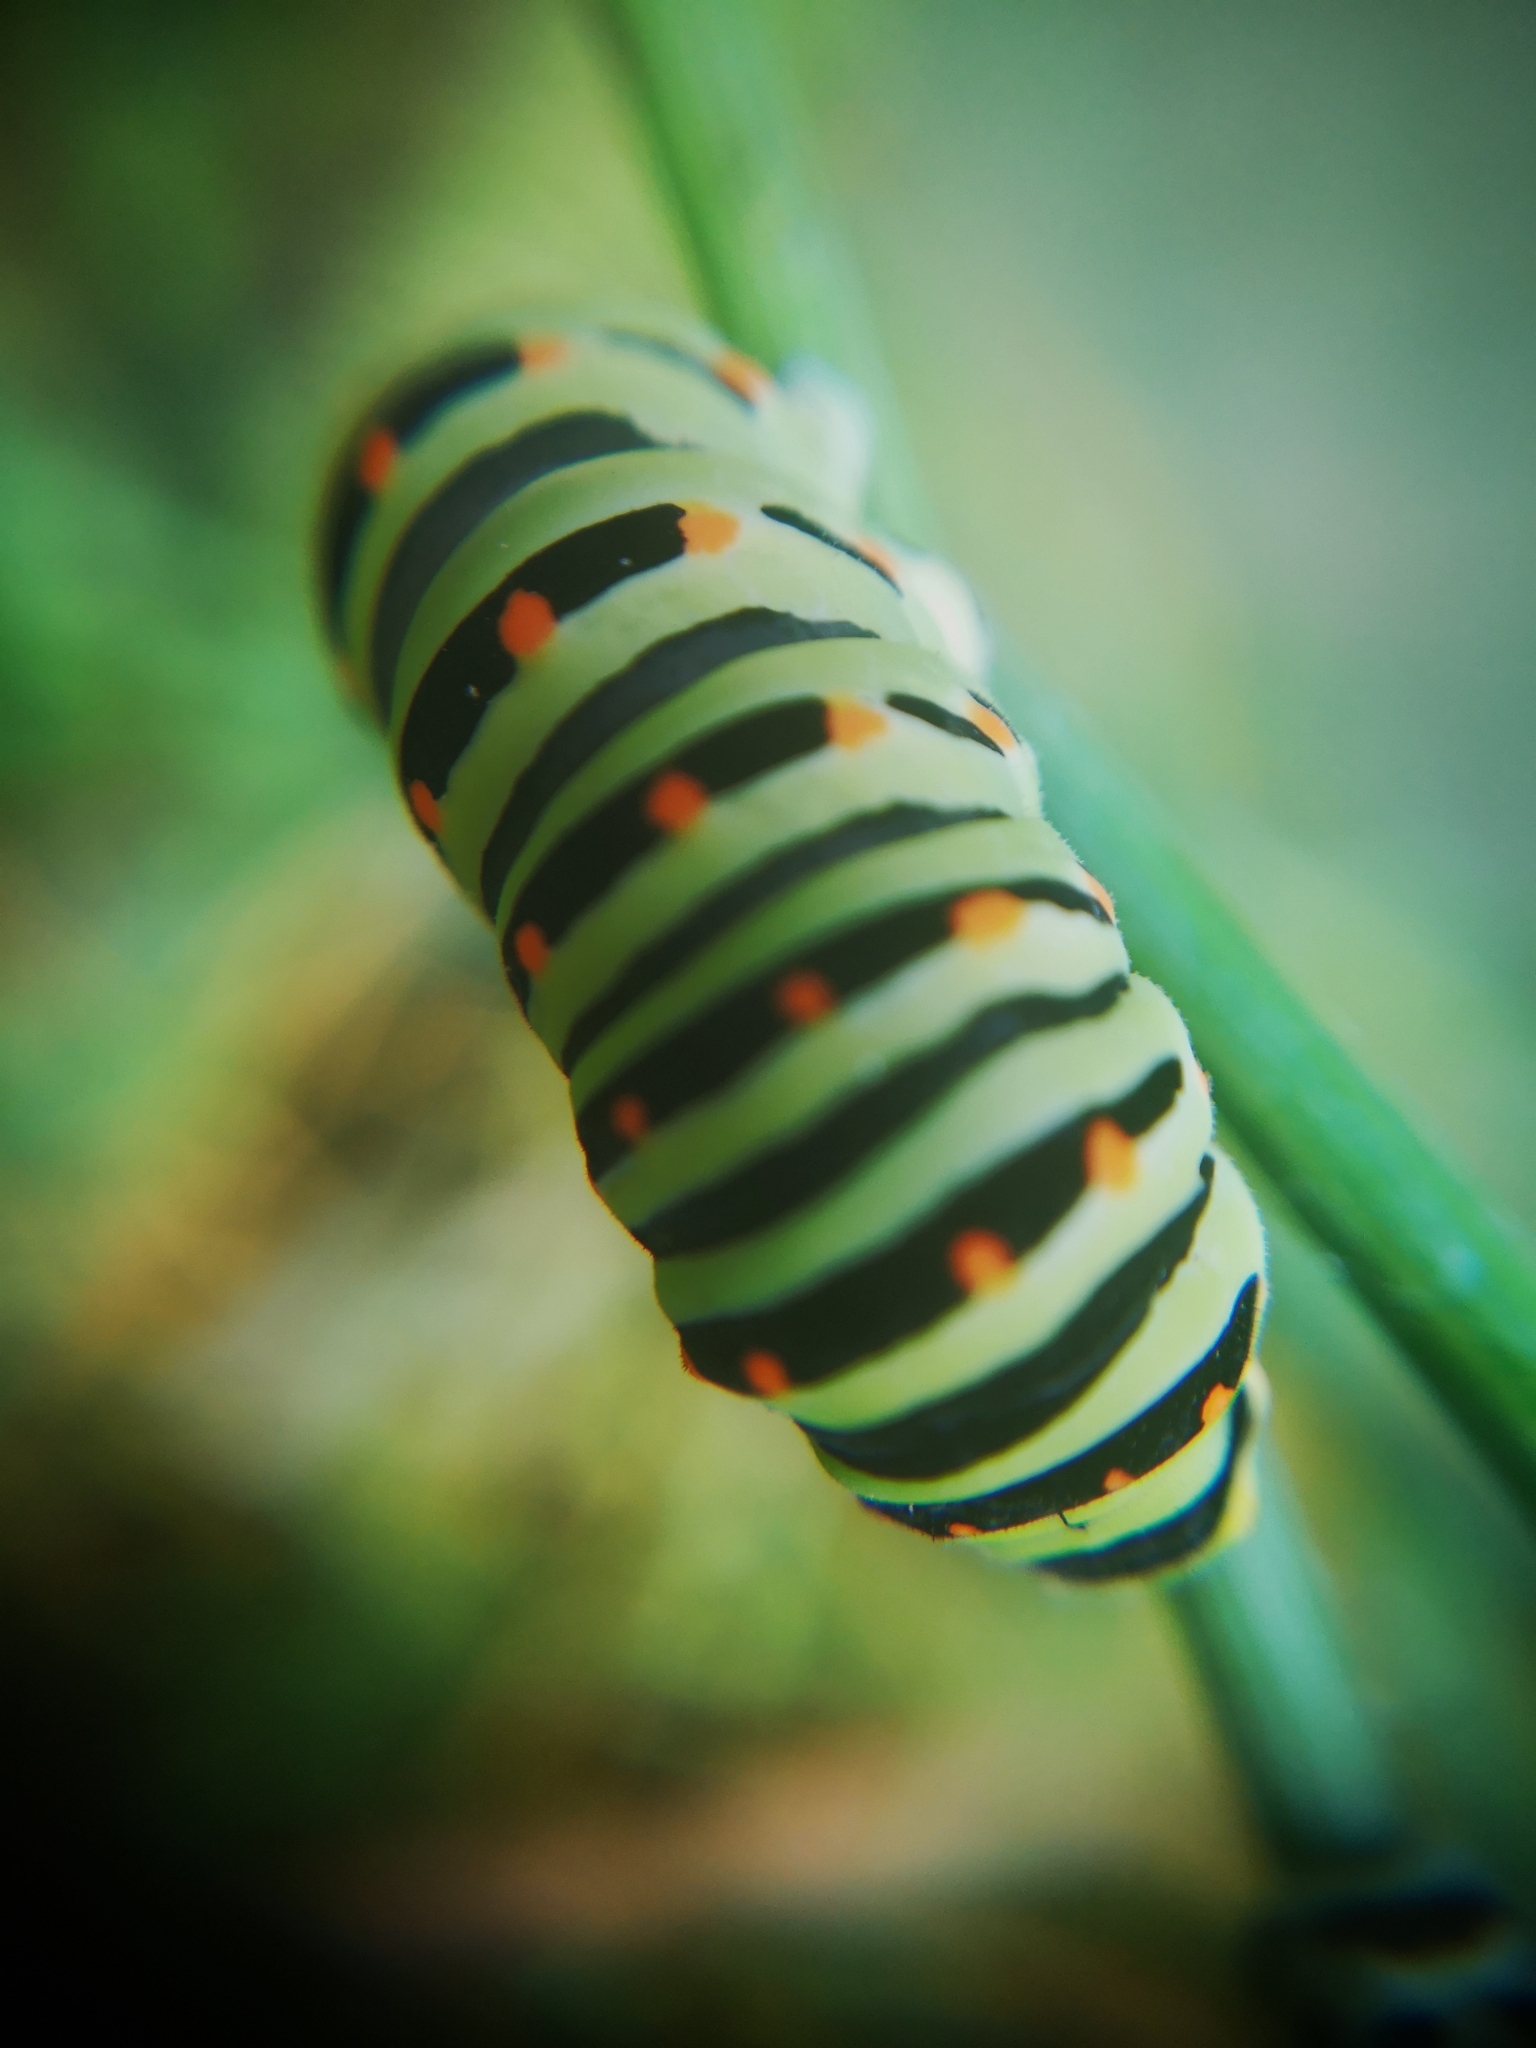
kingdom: Animalia
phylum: Arthropoda
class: Insecta
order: Lepidoptera
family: Papilionidae
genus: Papilio
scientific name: Papilio machaon
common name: Swallowtail
